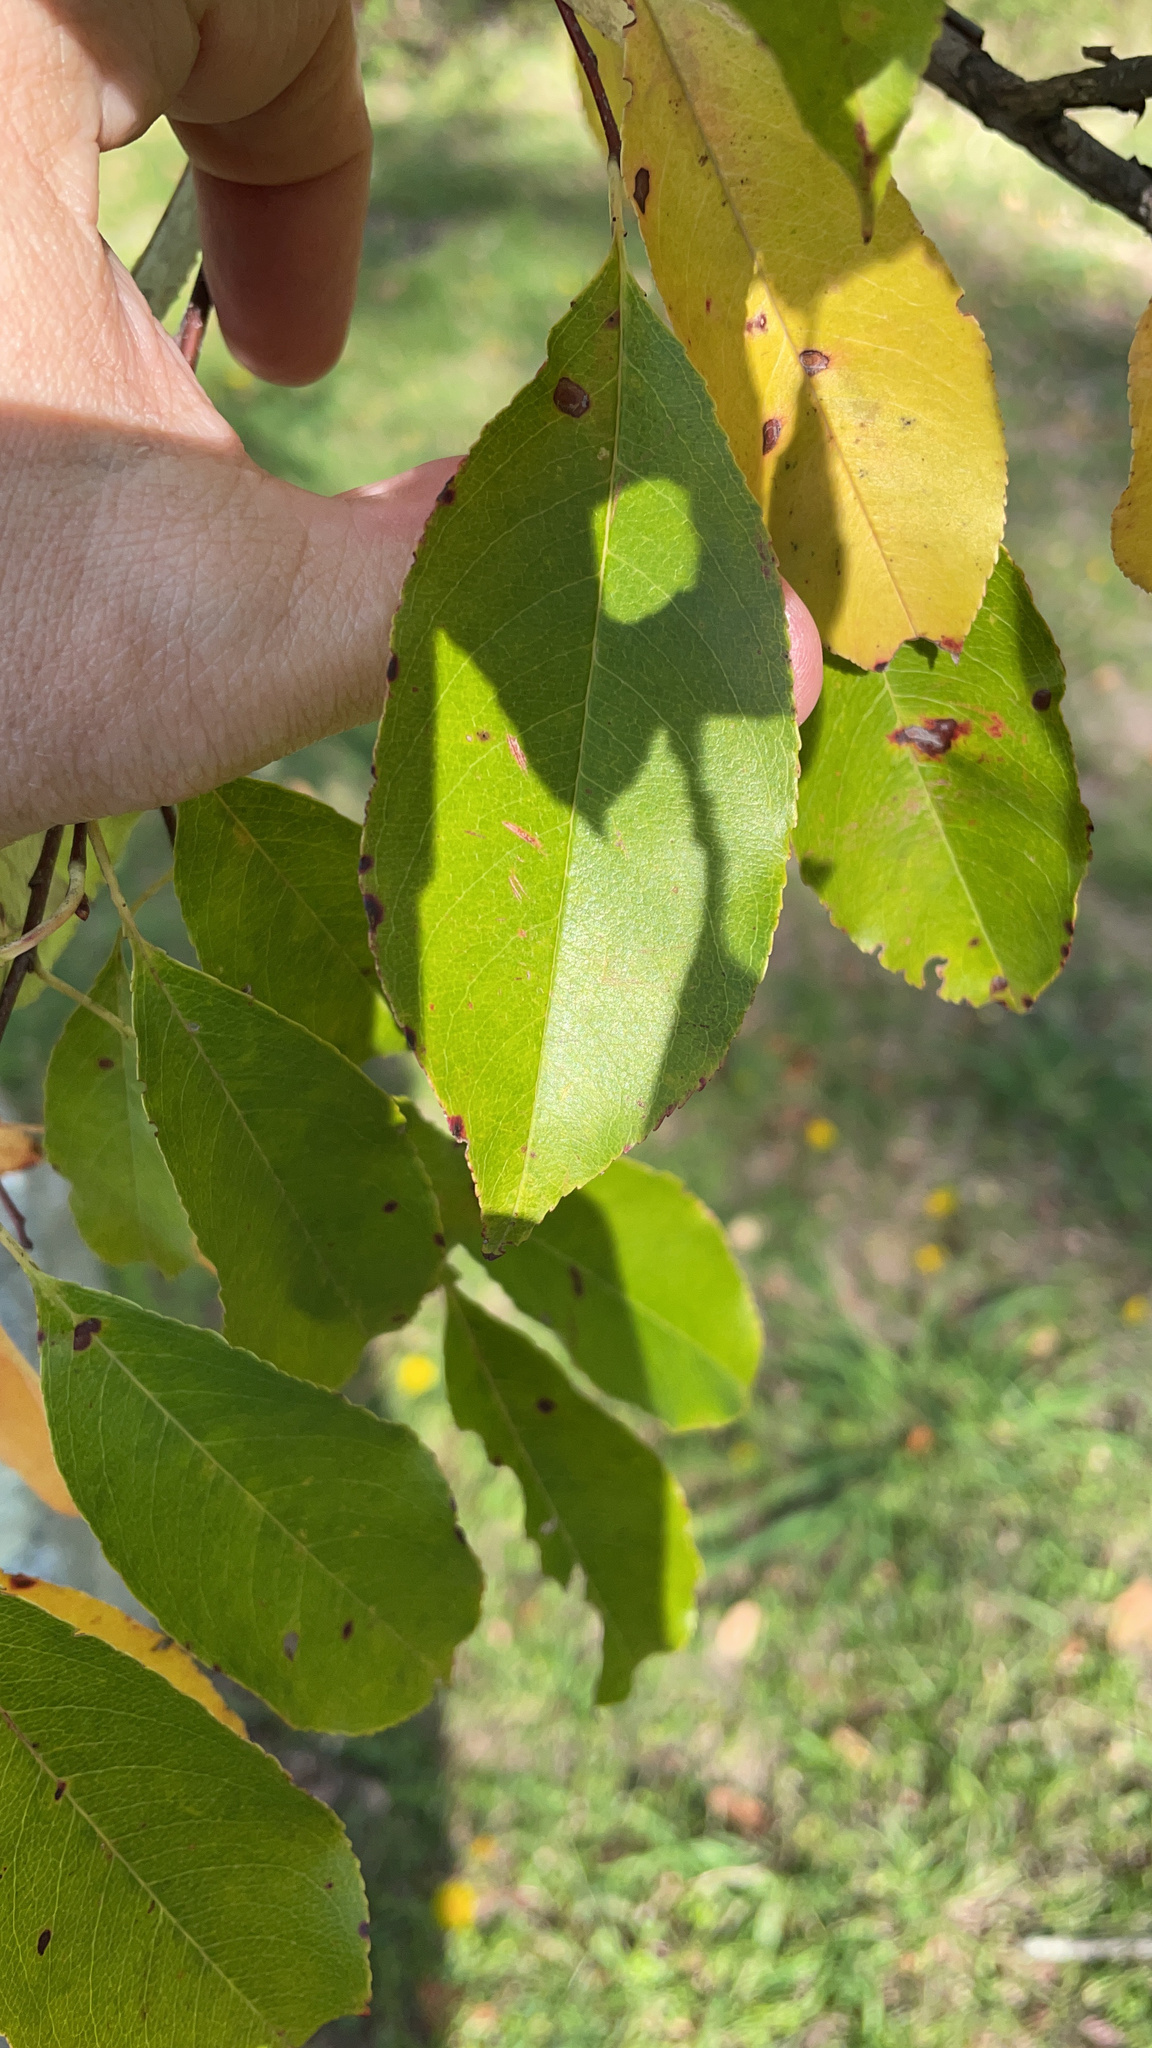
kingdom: Plantae
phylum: Tracheophyta
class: Magnoliopsida
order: Rosales
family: Rosaceae
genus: Prunus
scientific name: Prunus serotina
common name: Black cherry
